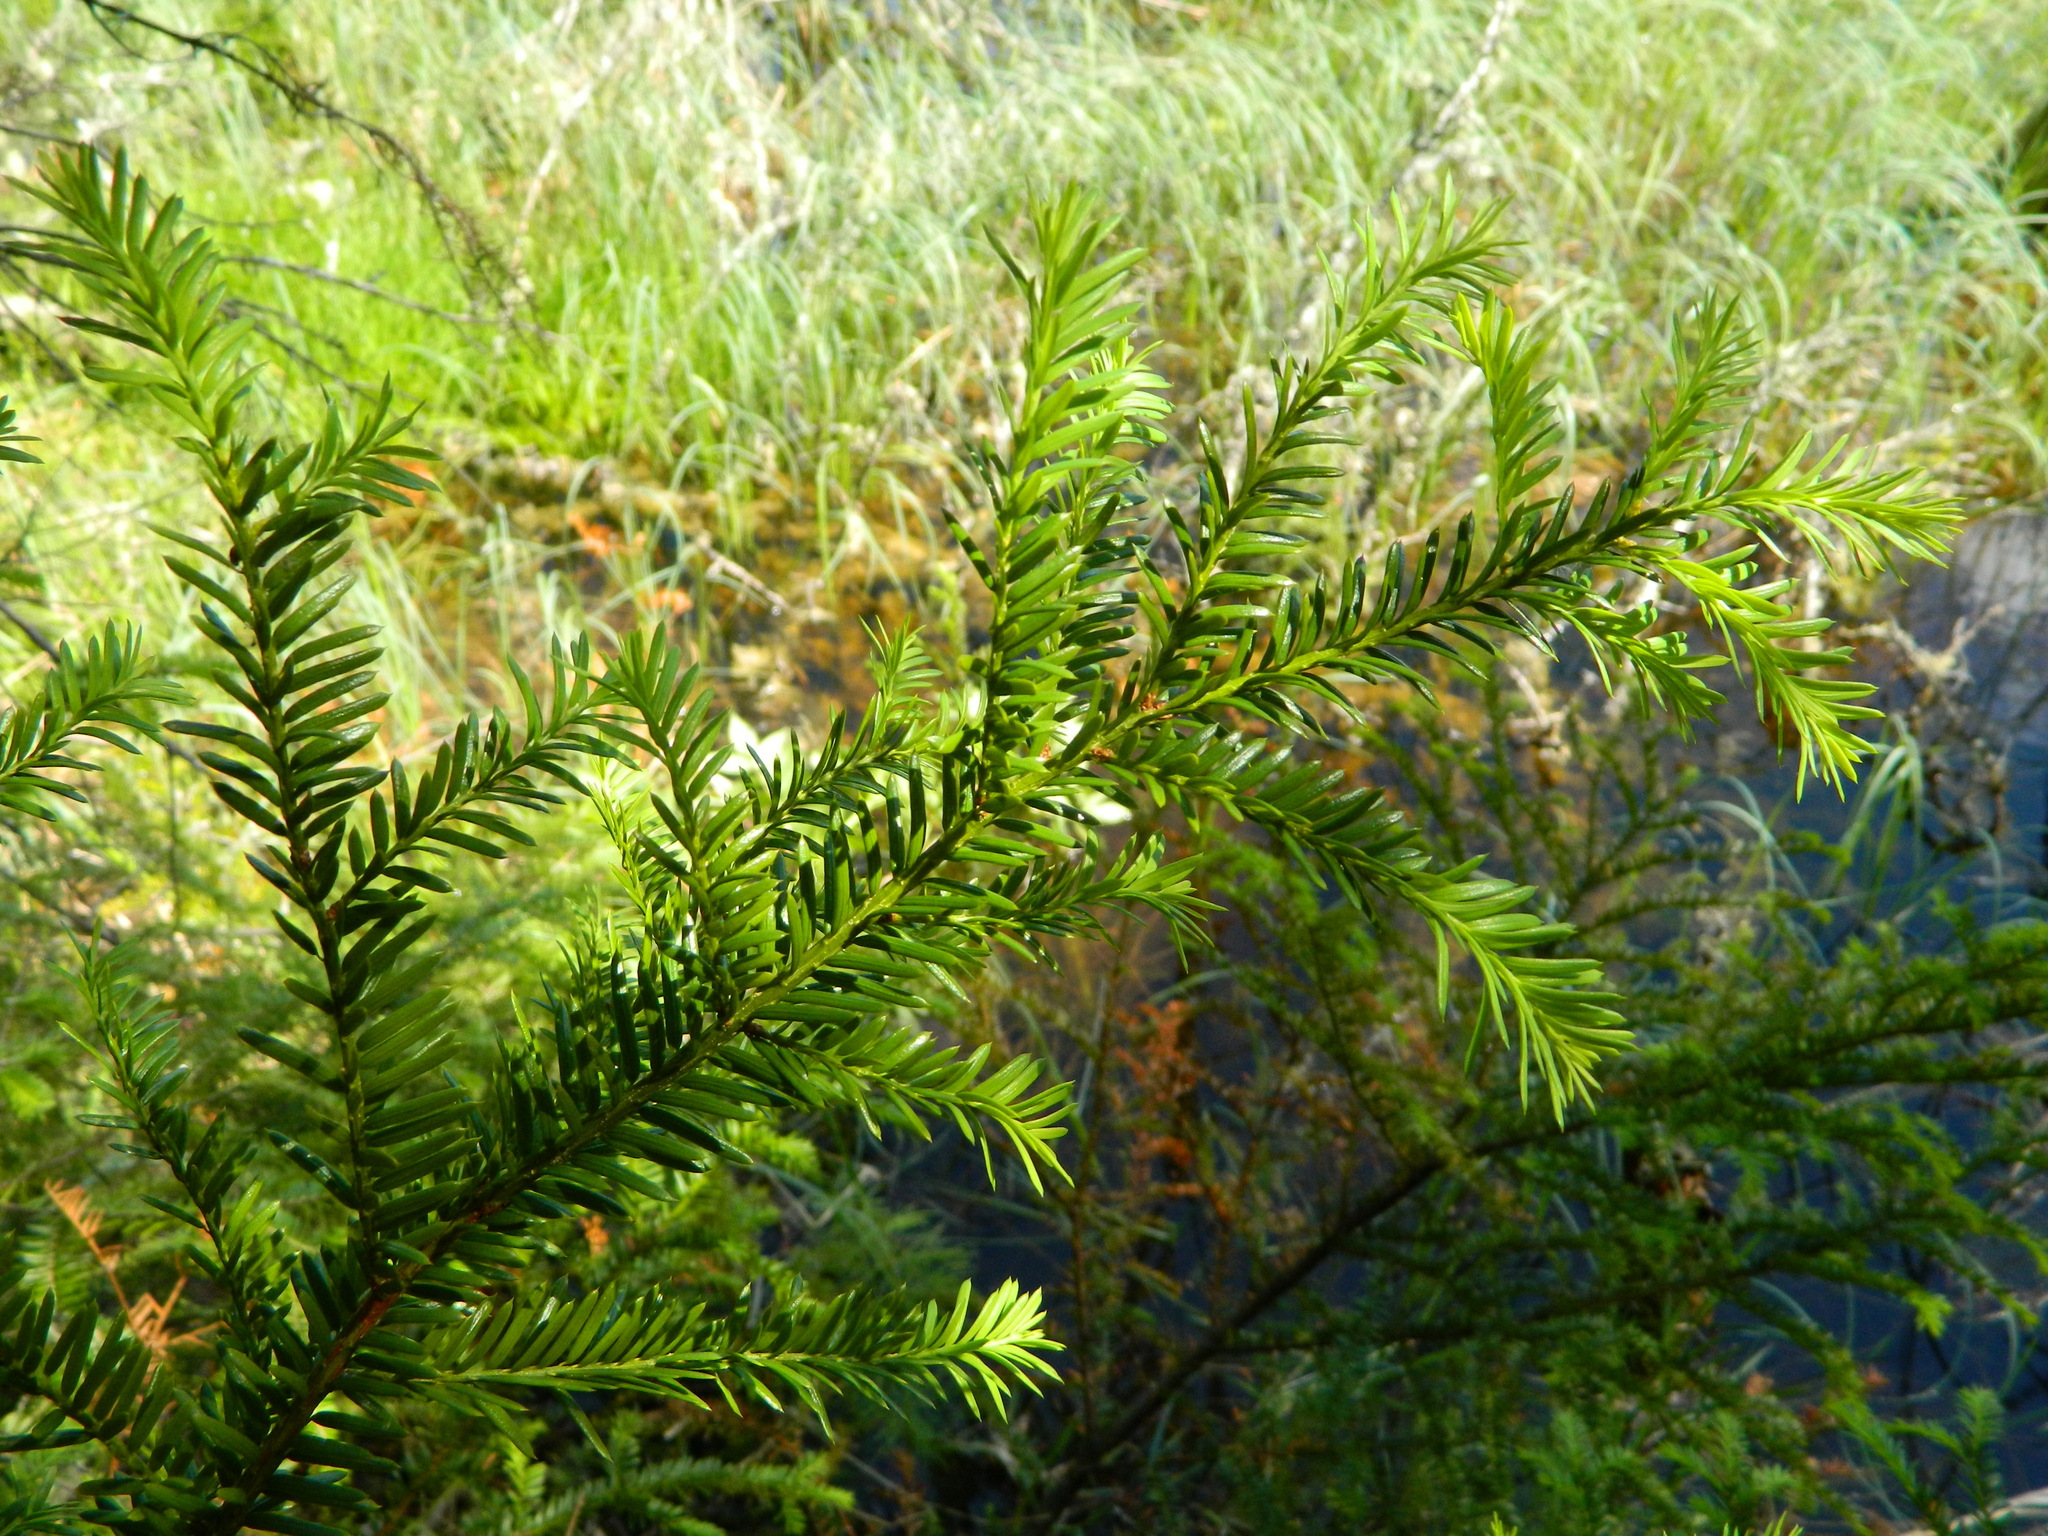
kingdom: Plantae
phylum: Tracheophyta
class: Pinopsida
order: Pinales
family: Taxaceae
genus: Taxus
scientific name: Taxus canadensis
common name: American yew
